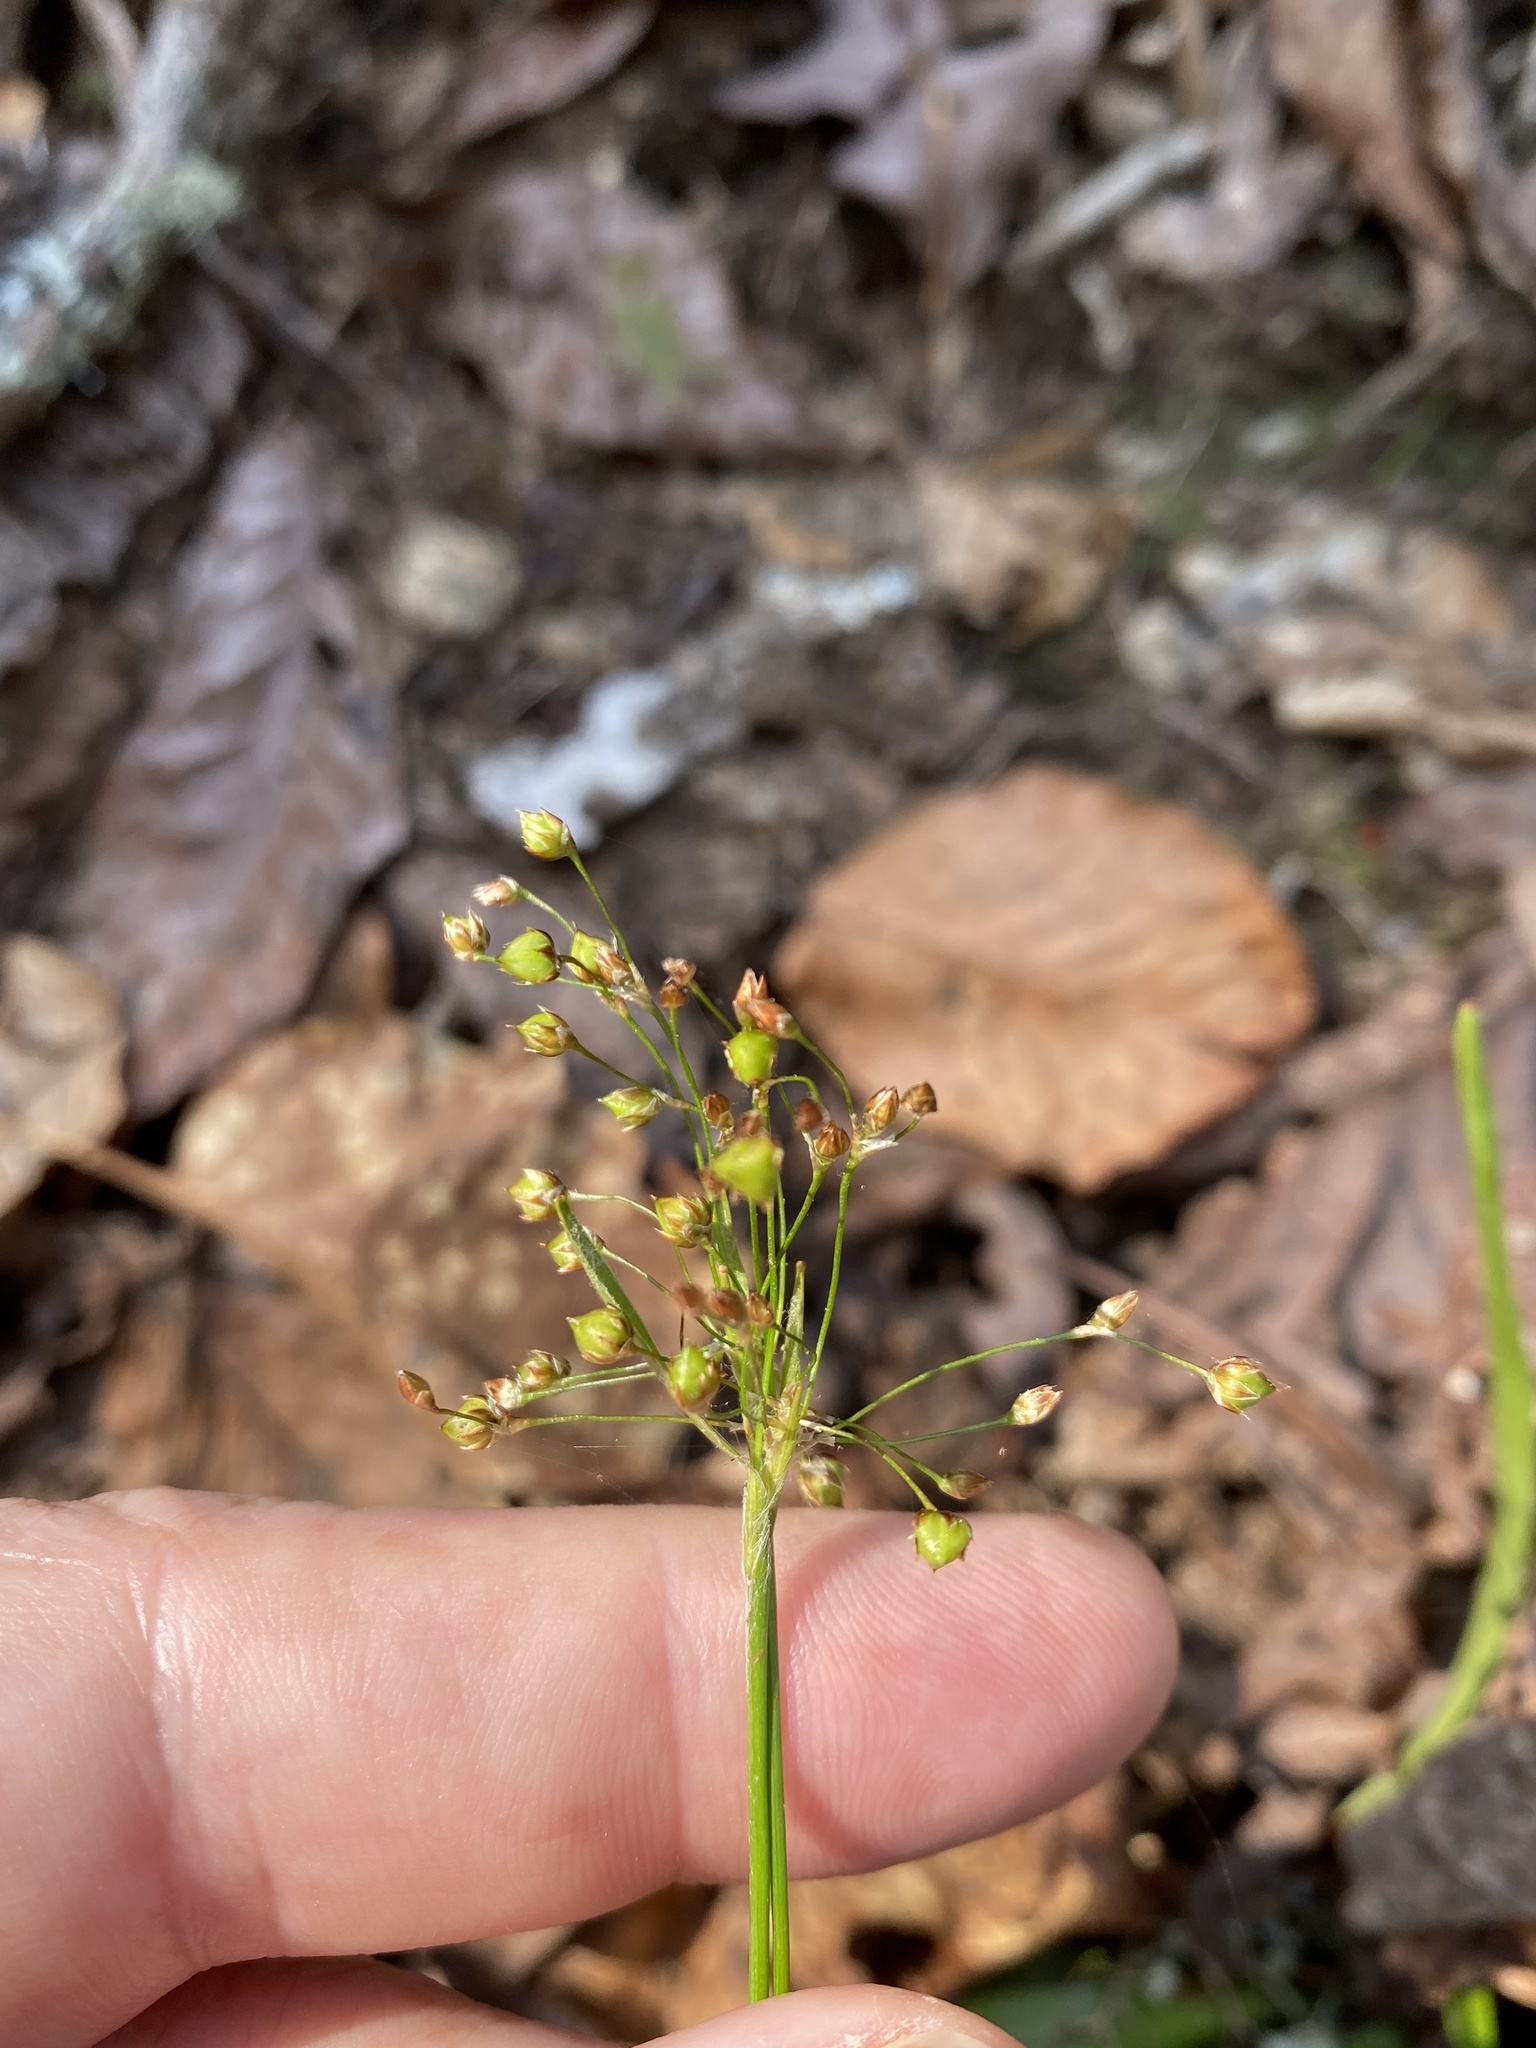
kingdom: Plantae
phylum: Tracheophyta
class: Liliopsida
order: Poales
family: Juncaceae
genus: Luzula
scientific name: Luzula acuminata
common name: Hairy woodrush
